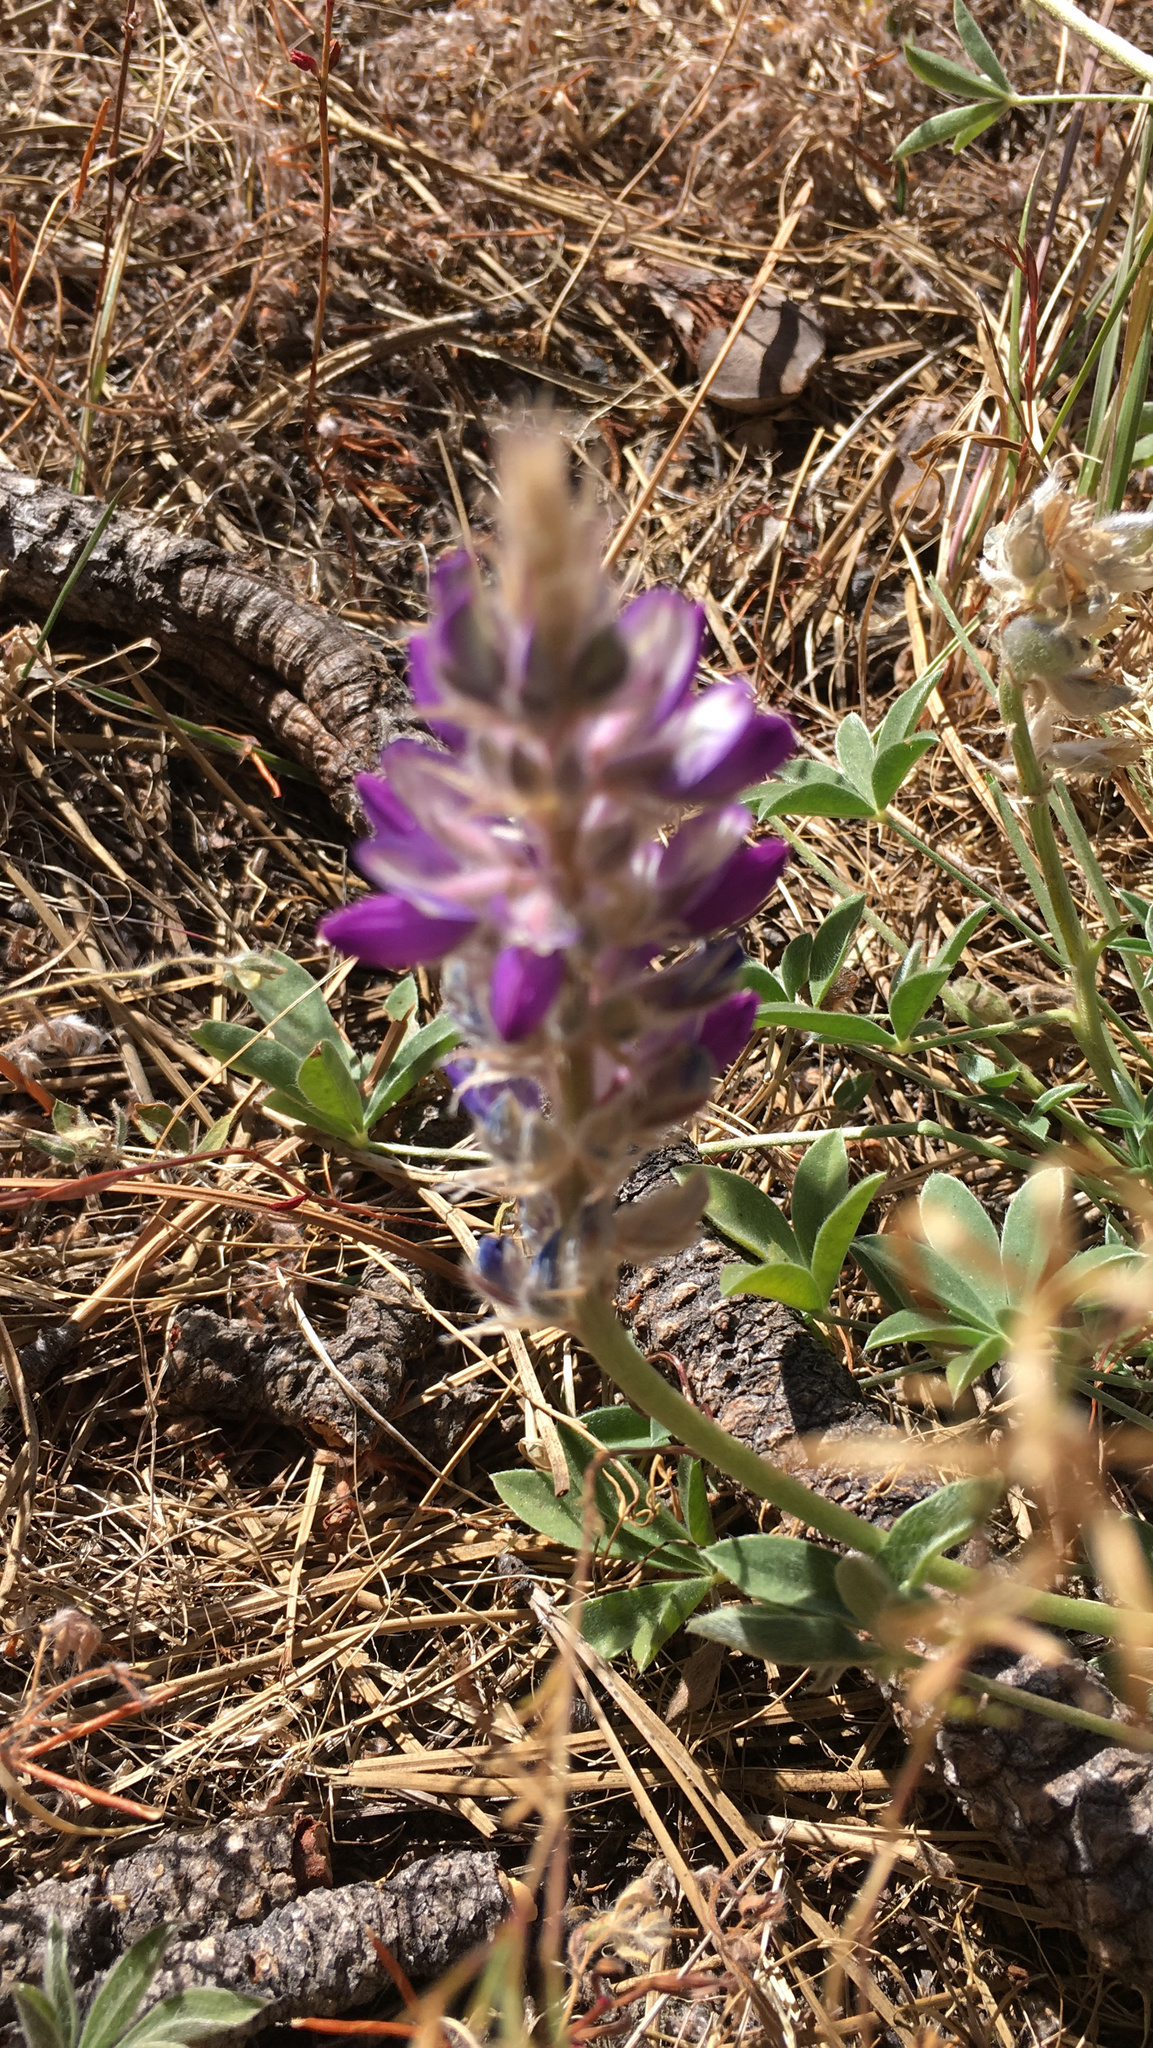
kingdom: Plantae
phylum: Tracheophyta
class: Magnoliopsida
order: Fabales
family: Fabaceae
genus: Lupinus
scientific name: Lupinus lepidus
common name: Prairie lupine
